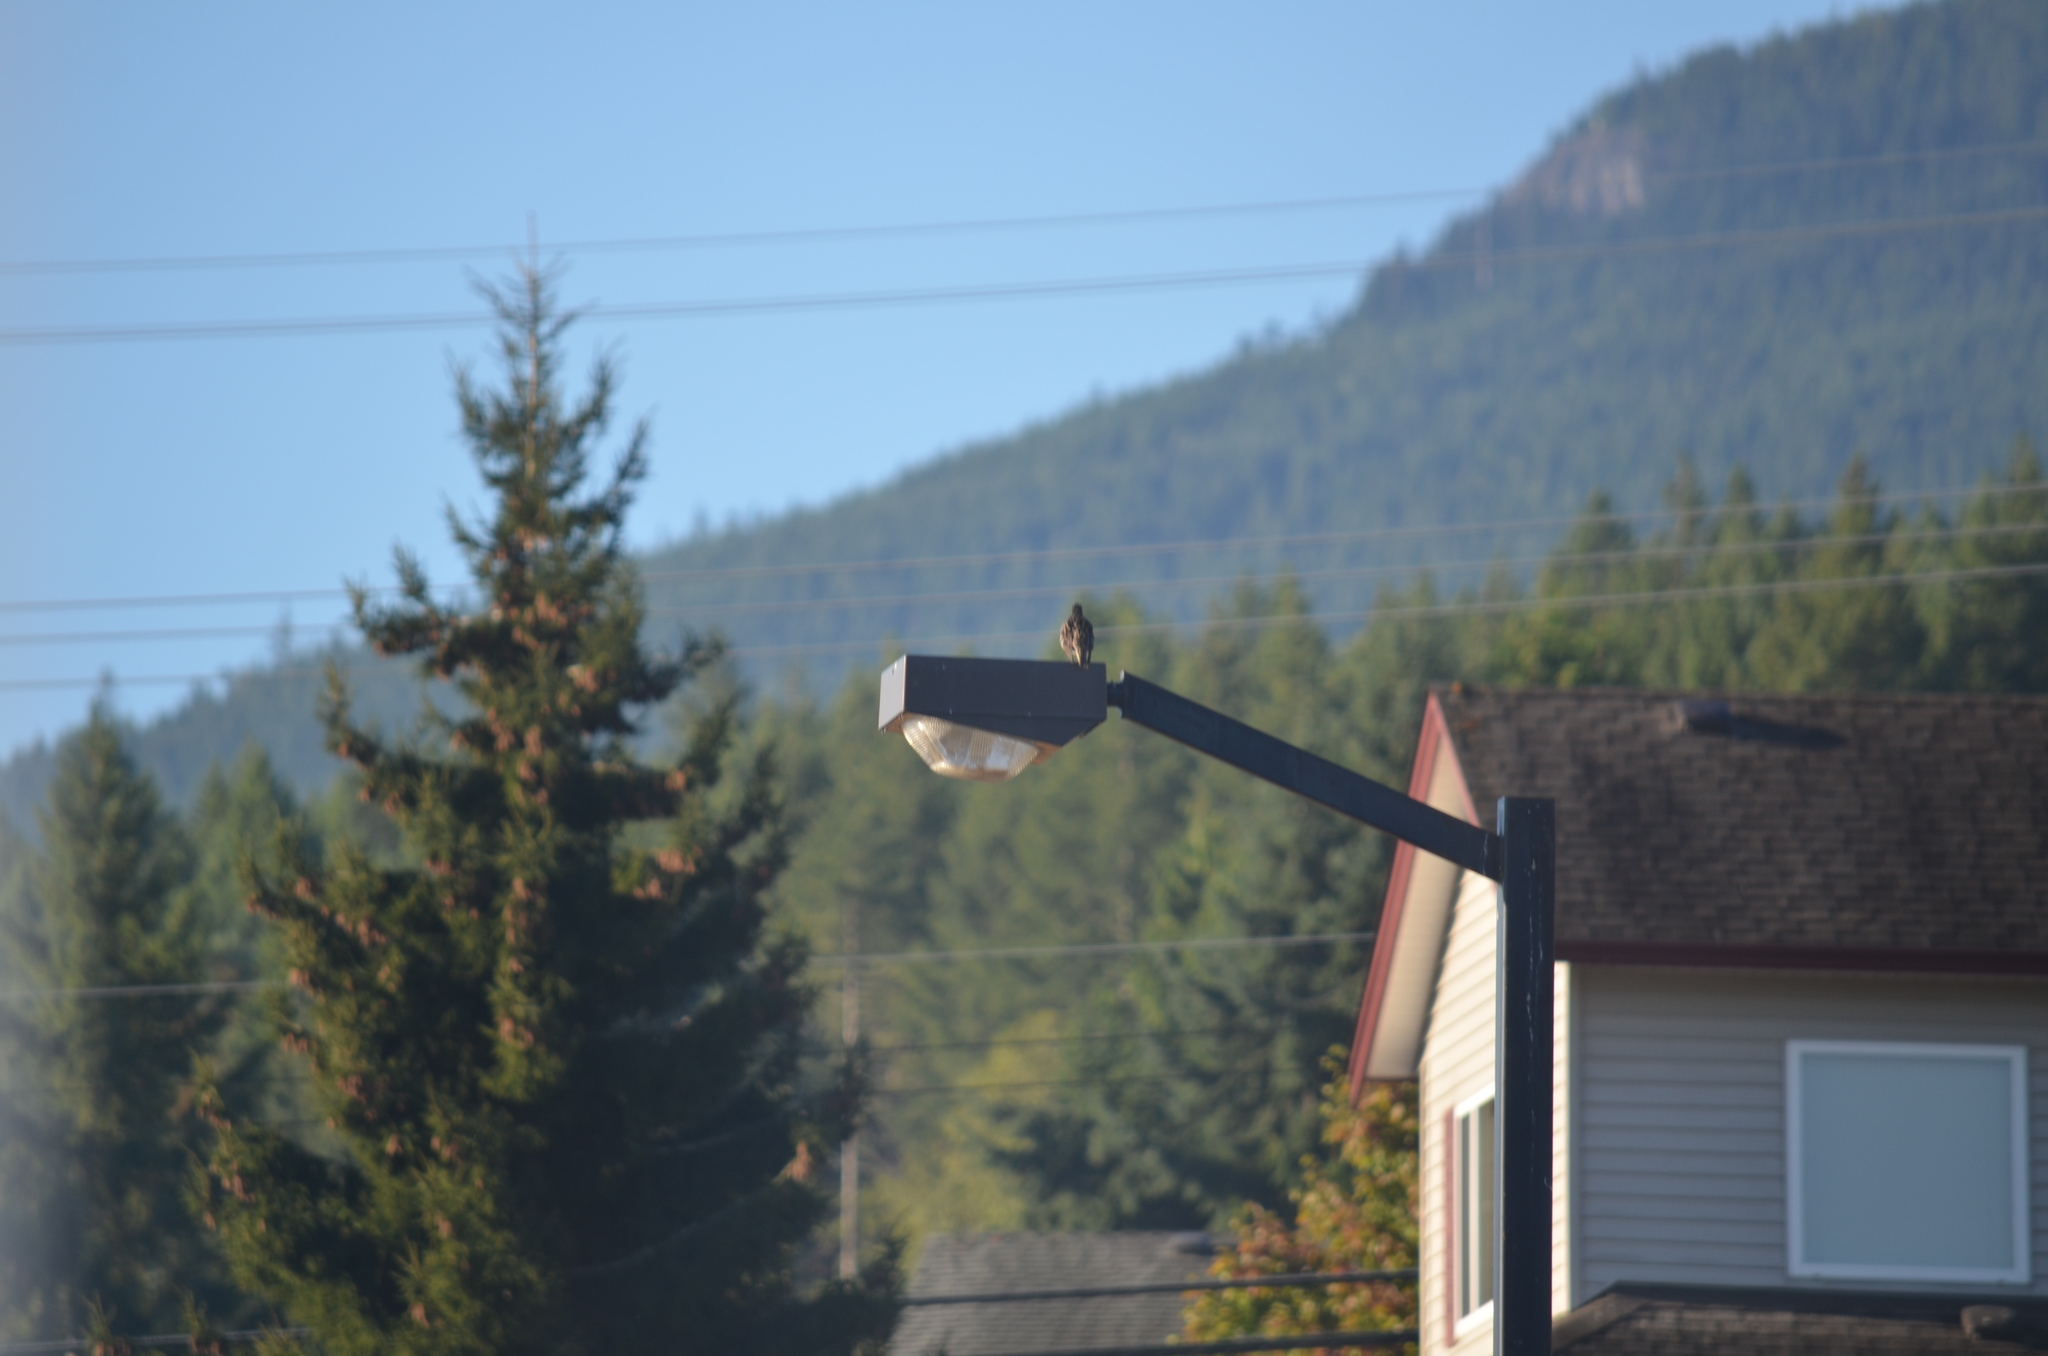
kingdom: Animalia
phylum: Chordata
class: Aves
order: Passeriformes
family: Sturnidae
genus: Sturnus
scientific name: Sturnus vulgaris
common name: Common starling
